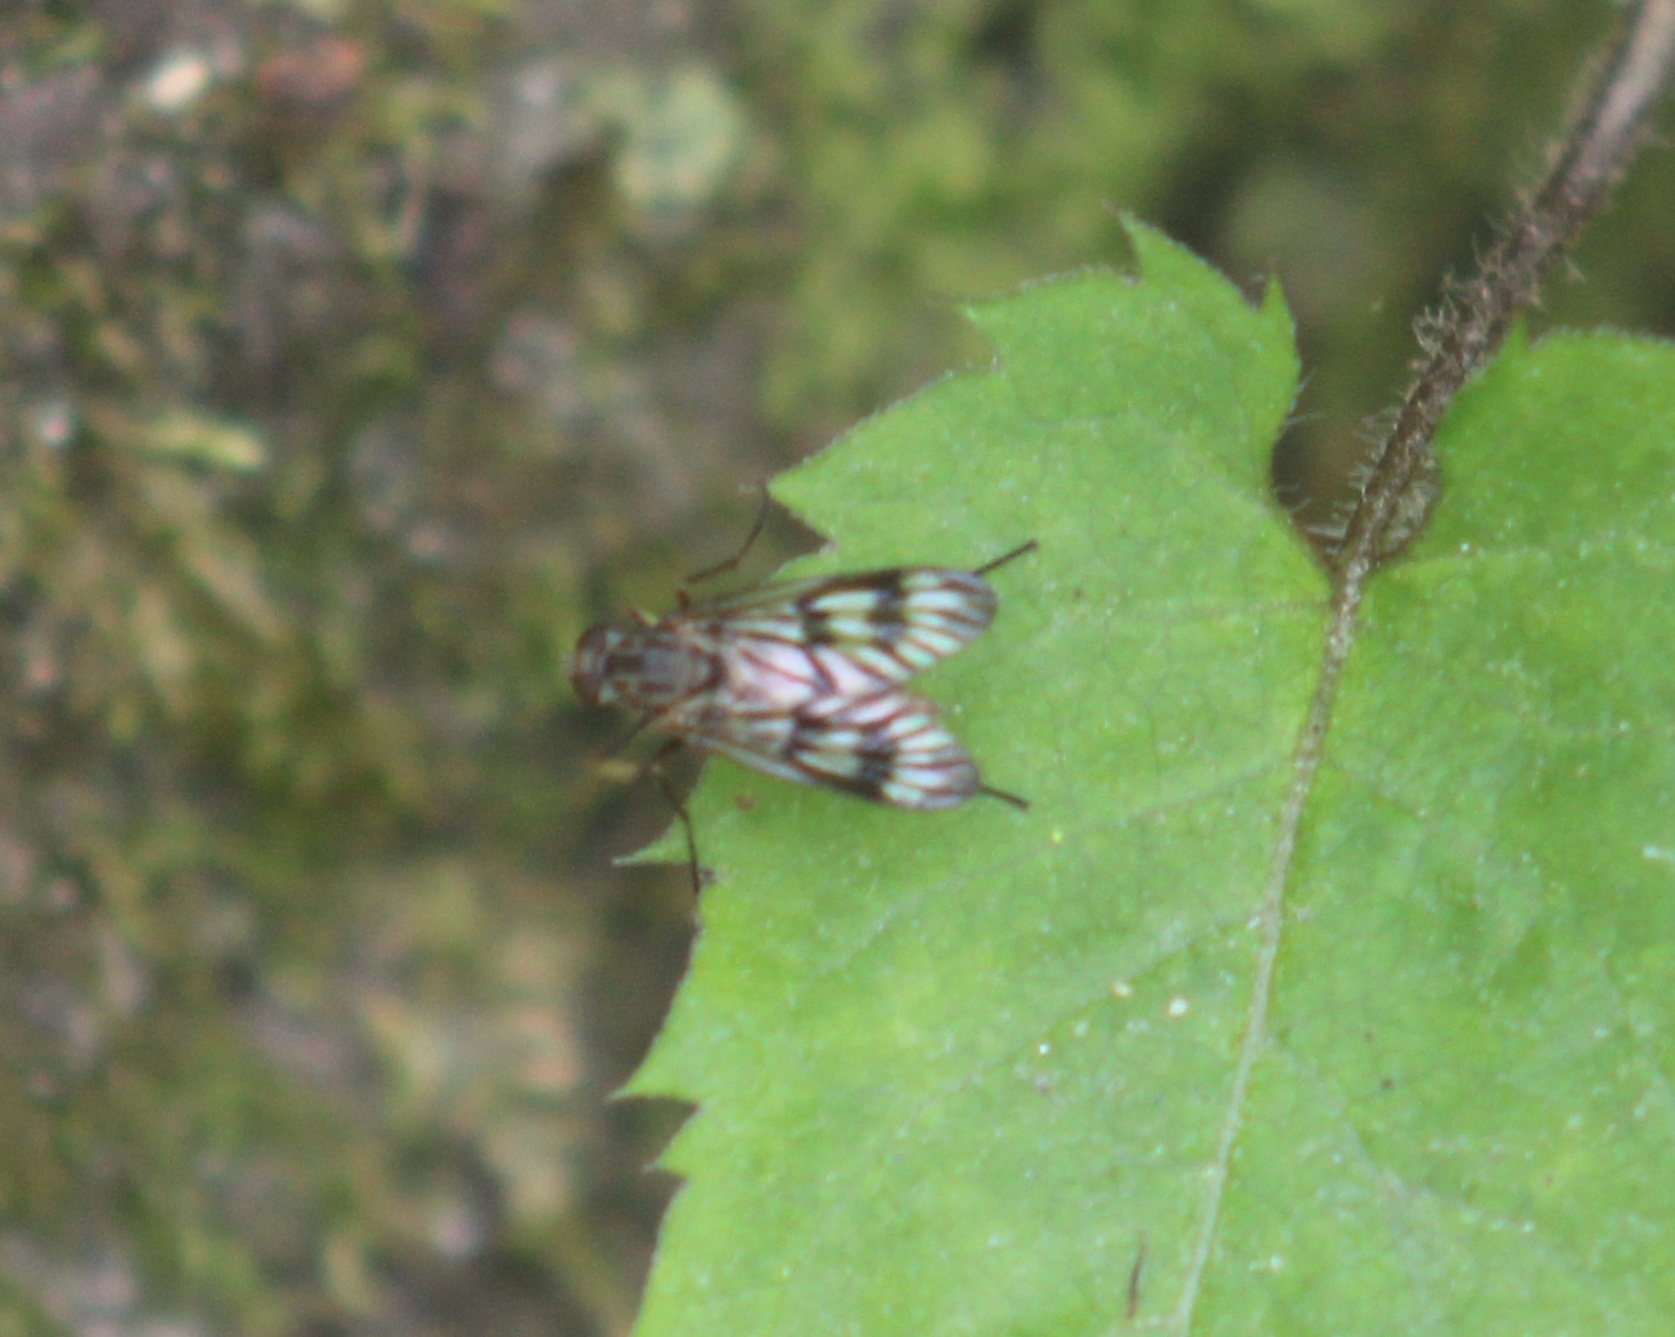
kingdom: Animalia
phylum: Arthropoda
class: Insecta
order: Diptera
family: Rhagionidae
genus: Rhagio
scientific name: Rhagio mystaceus
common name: Common snipe fly
